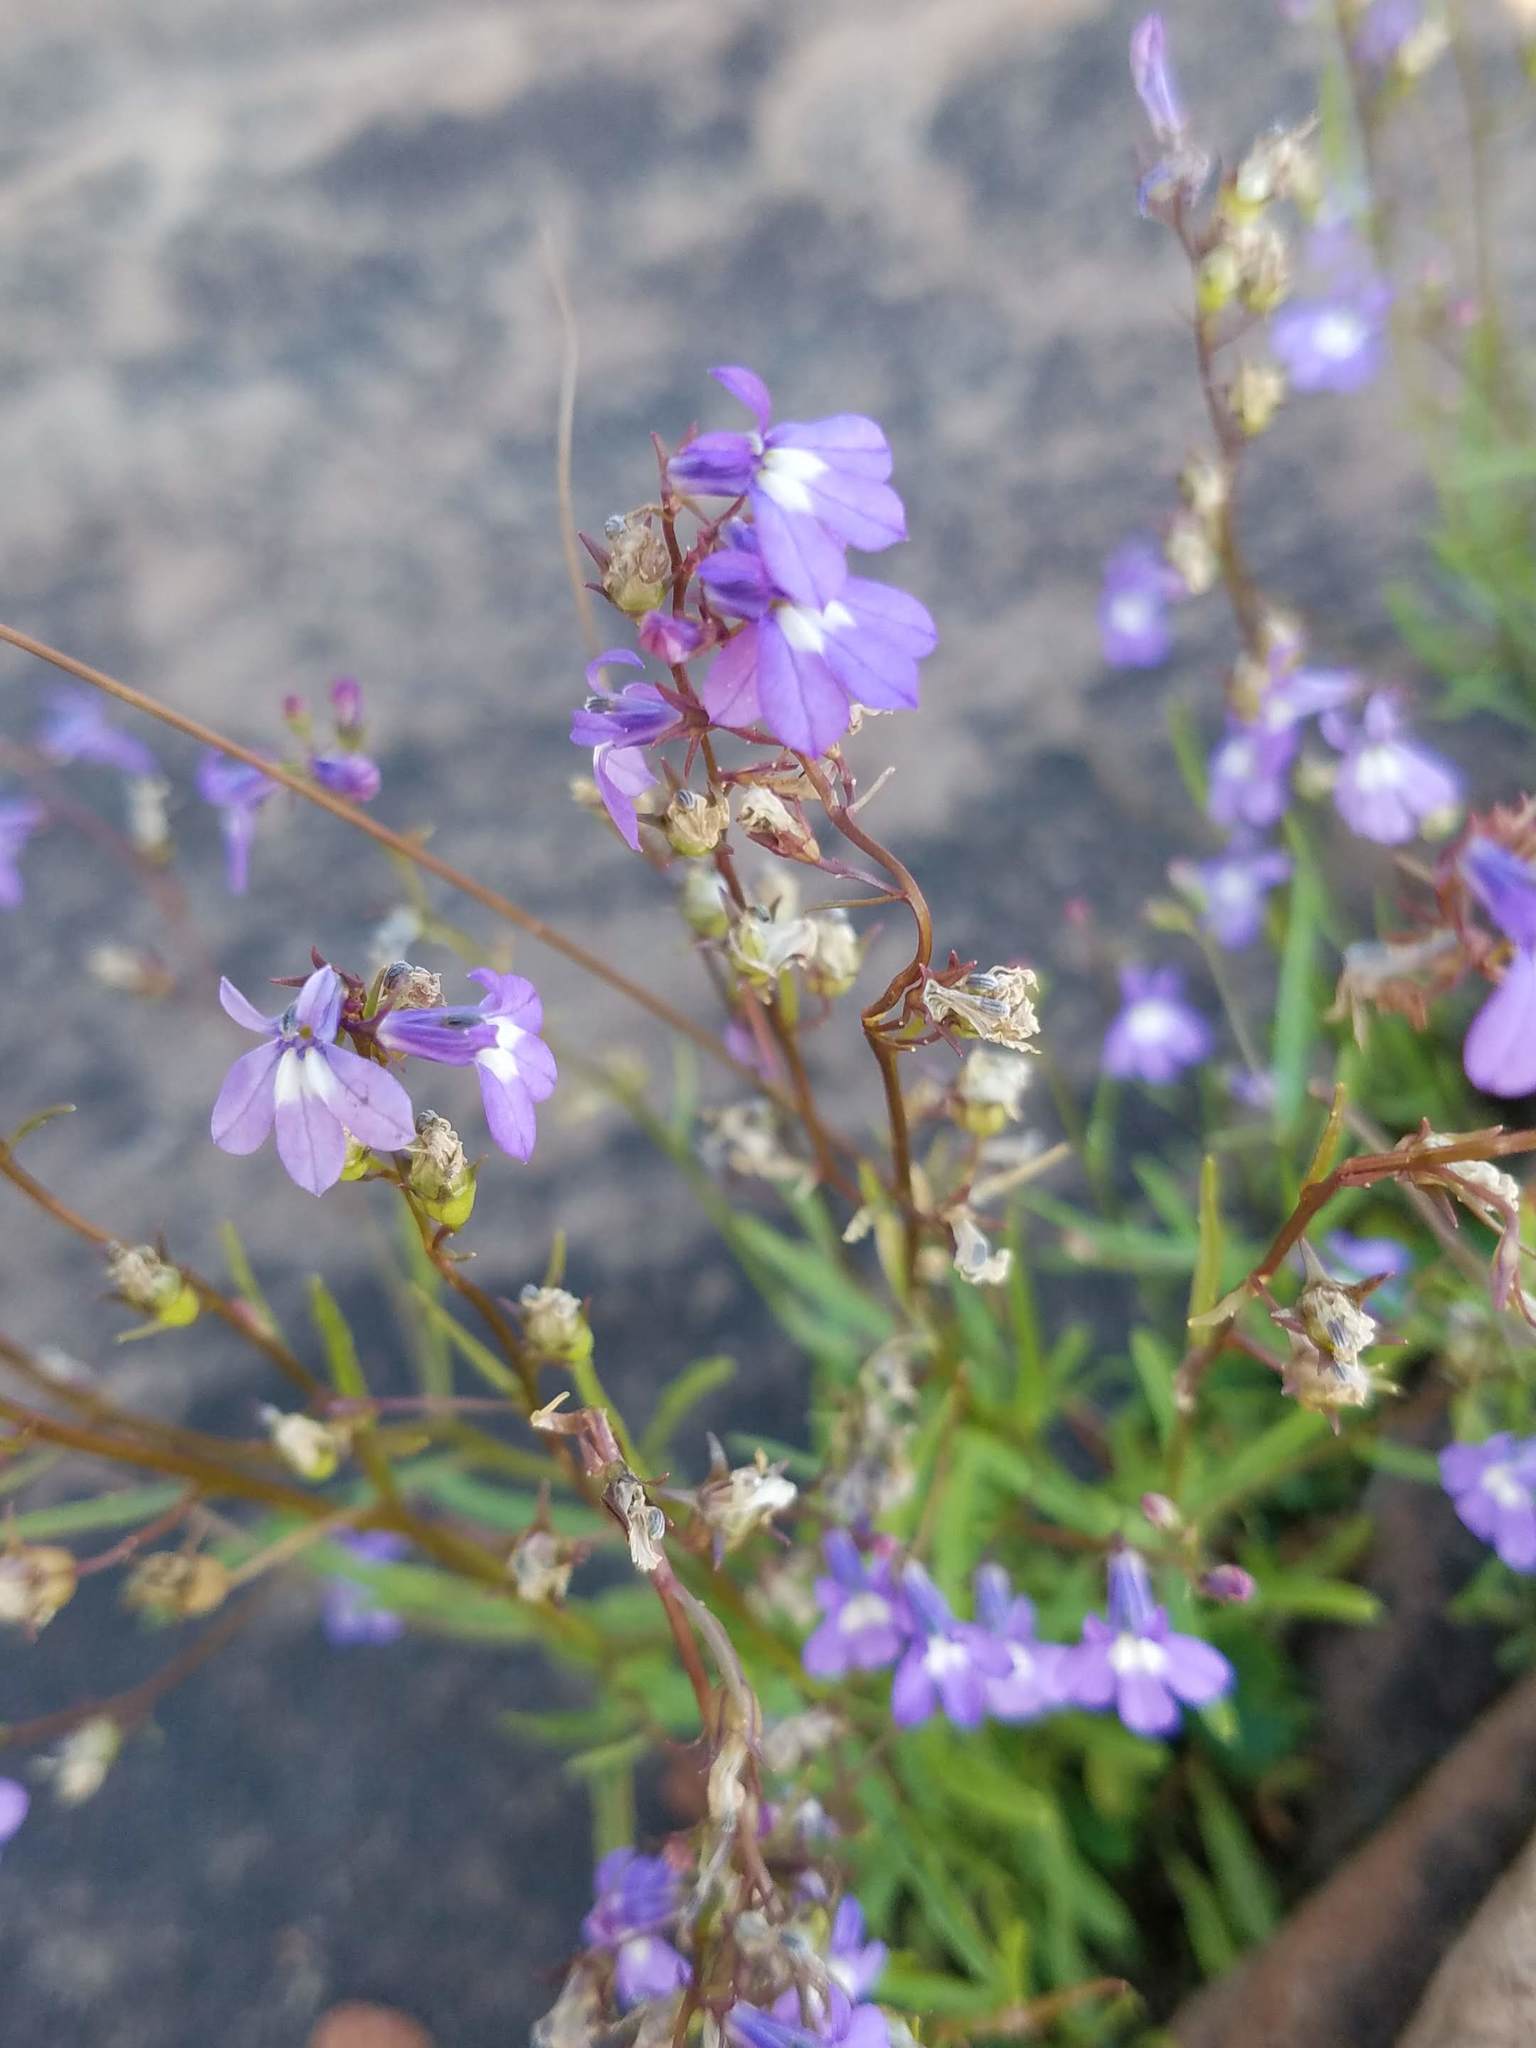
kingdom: Plantae
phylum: Tracheophyta
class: Magnoliopsida
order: Asterales
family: Campanulaceae
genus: Lobelia
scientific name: Lobelia kalmii
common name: Kalm's lobelia
